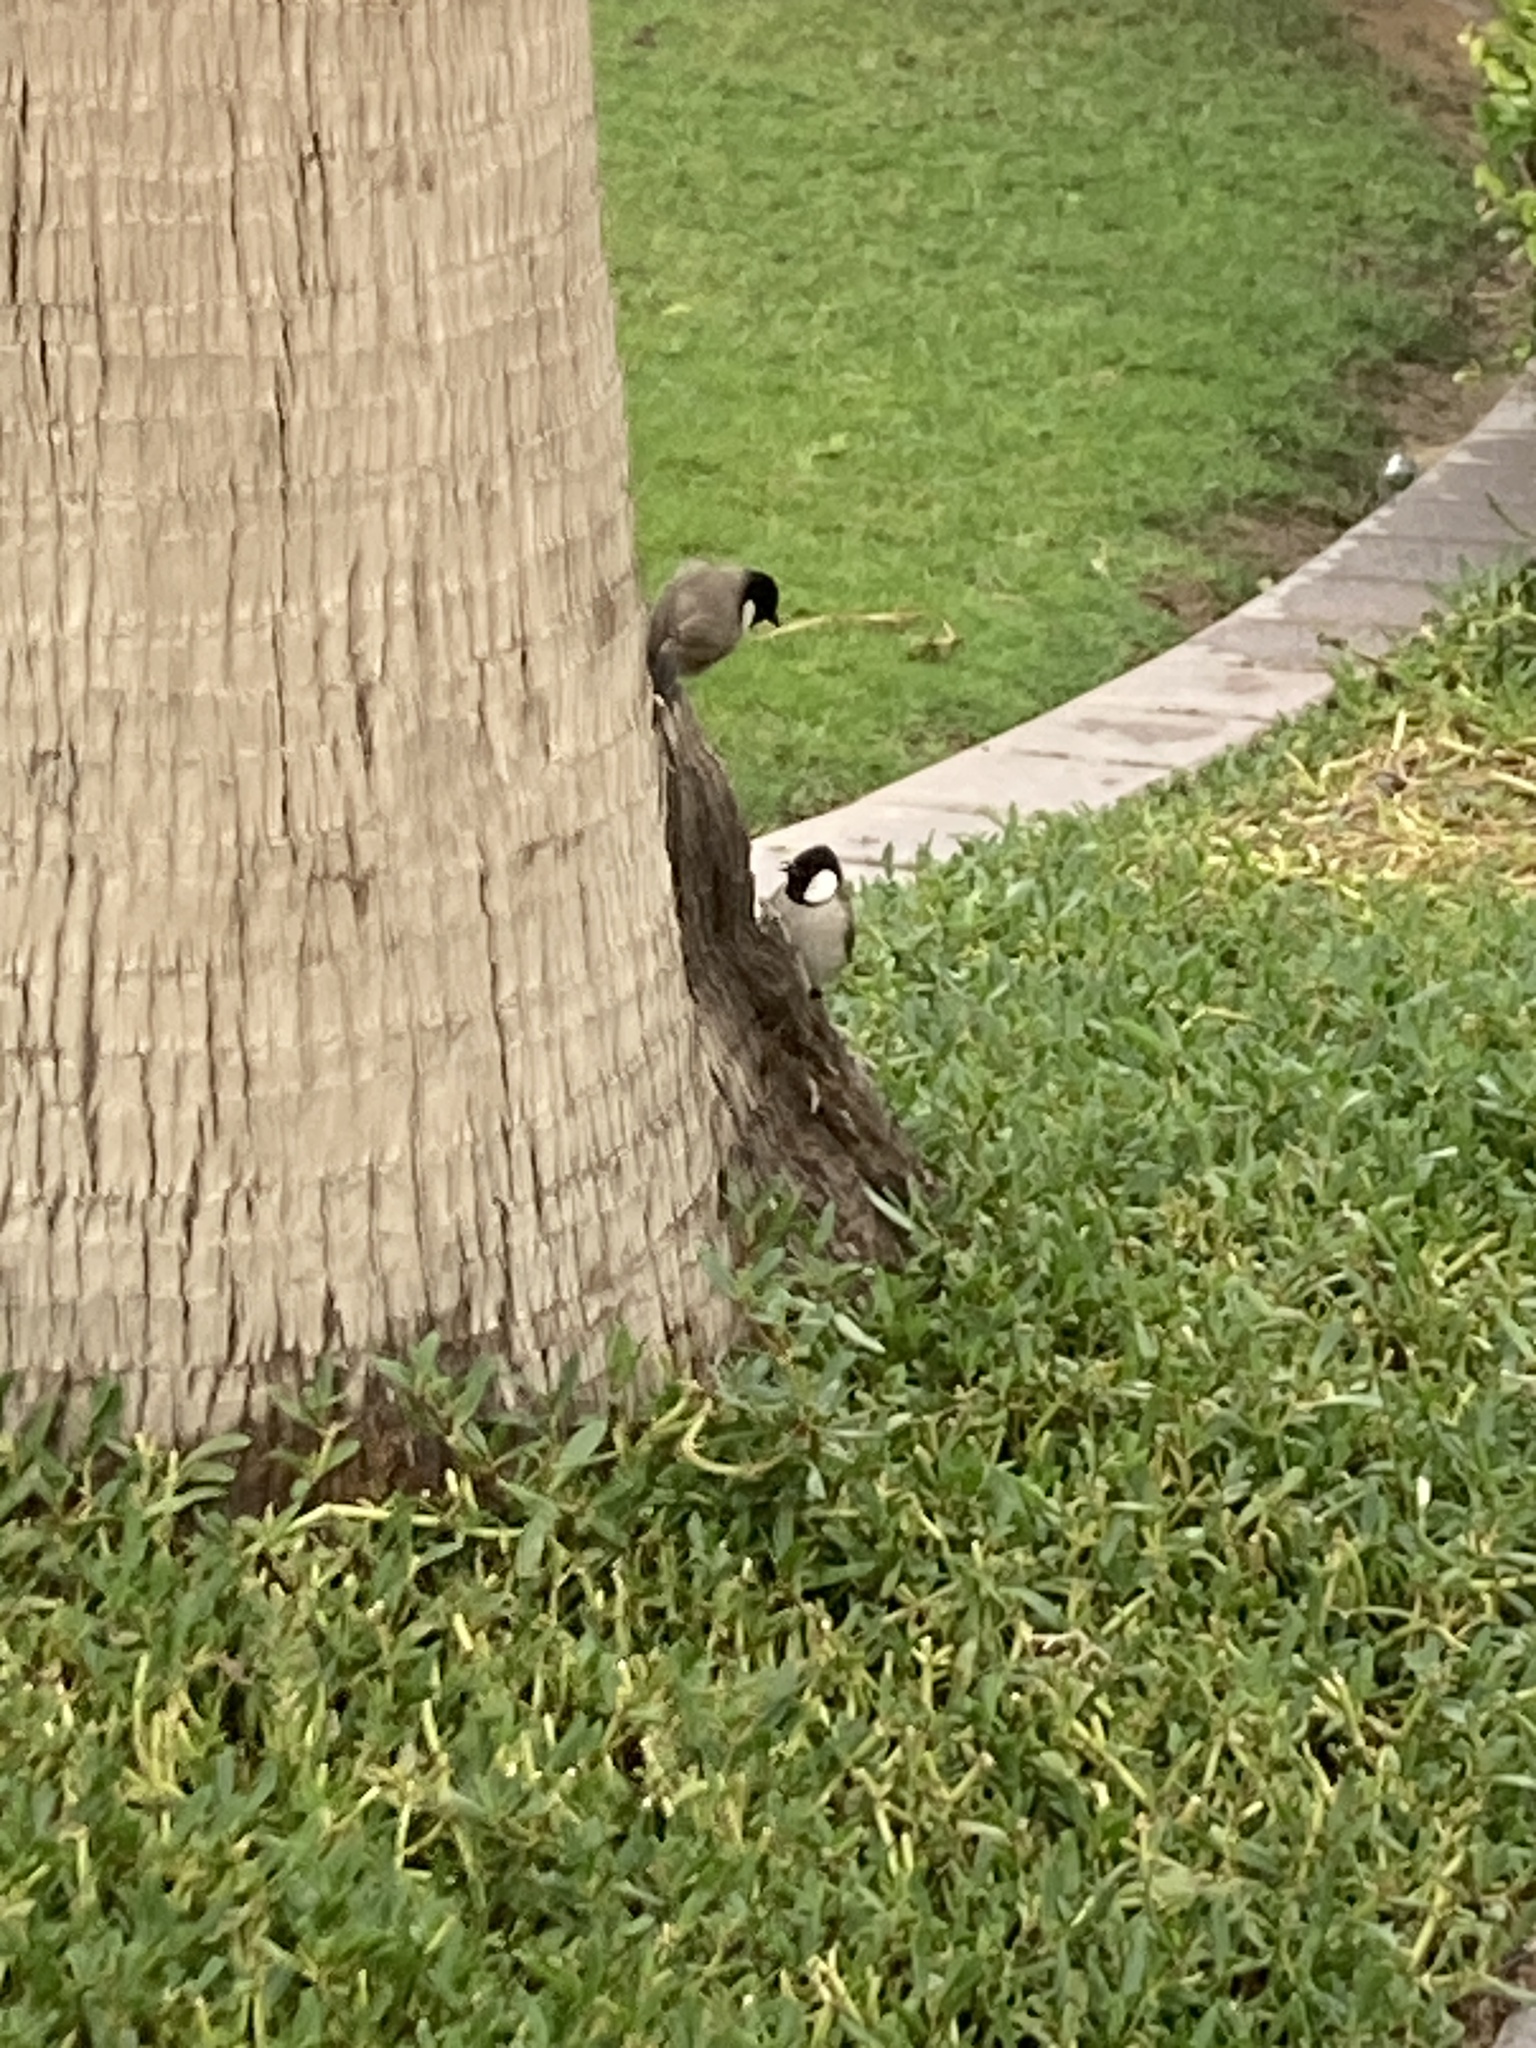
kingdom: Animalia
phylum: Chordata
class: Aves
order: Passeriformes
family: Pycnonotidae
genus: Pycnonotus
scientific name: Pycnonotus leucotis
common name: White-eared bulbul
